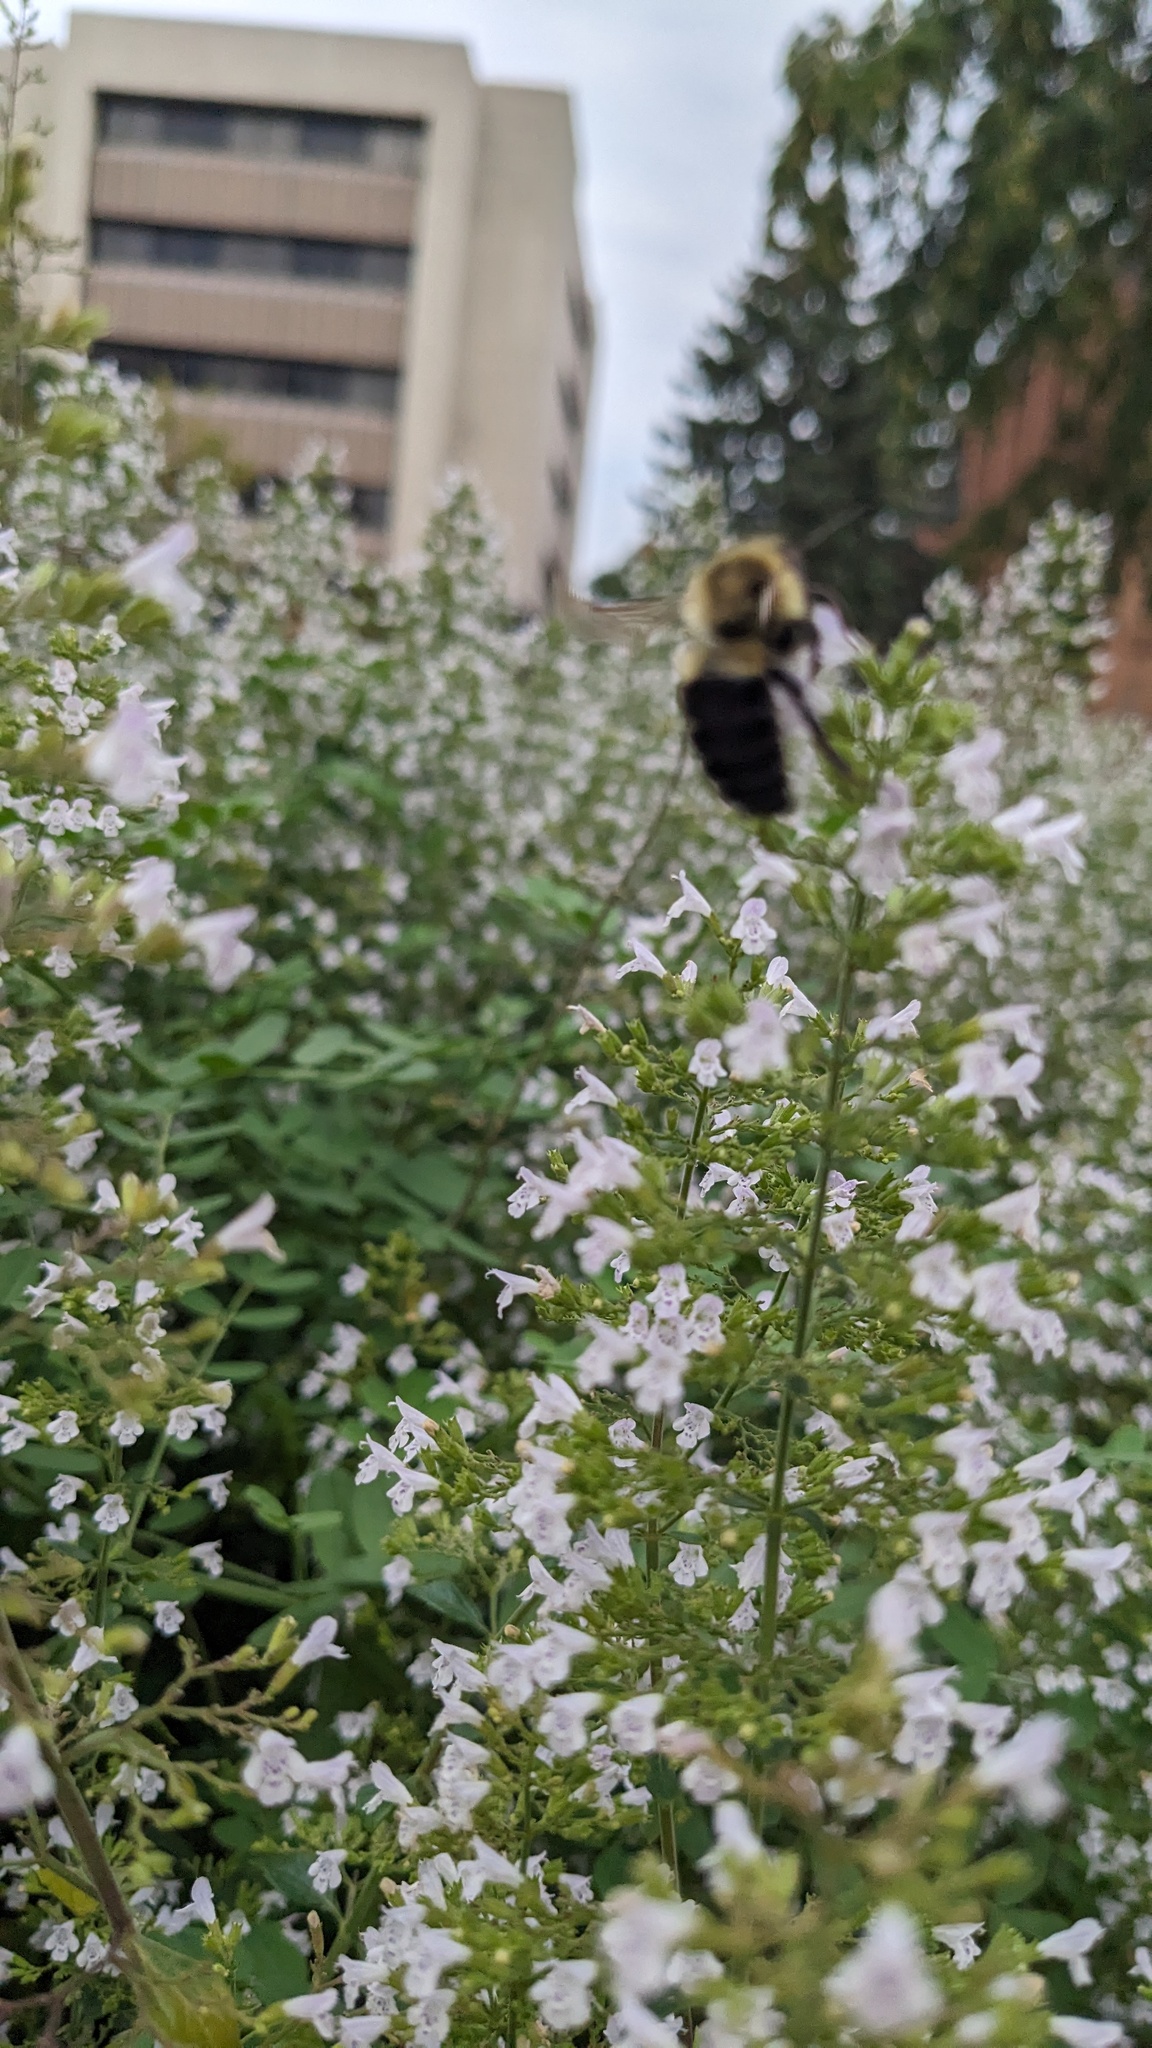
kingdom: Animalia
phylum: Arthropoda
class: Insecta
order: Hymenoptera
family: Apidae
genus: Bombus
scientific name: Bombus impatiens
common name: Common eastern bumble bee
